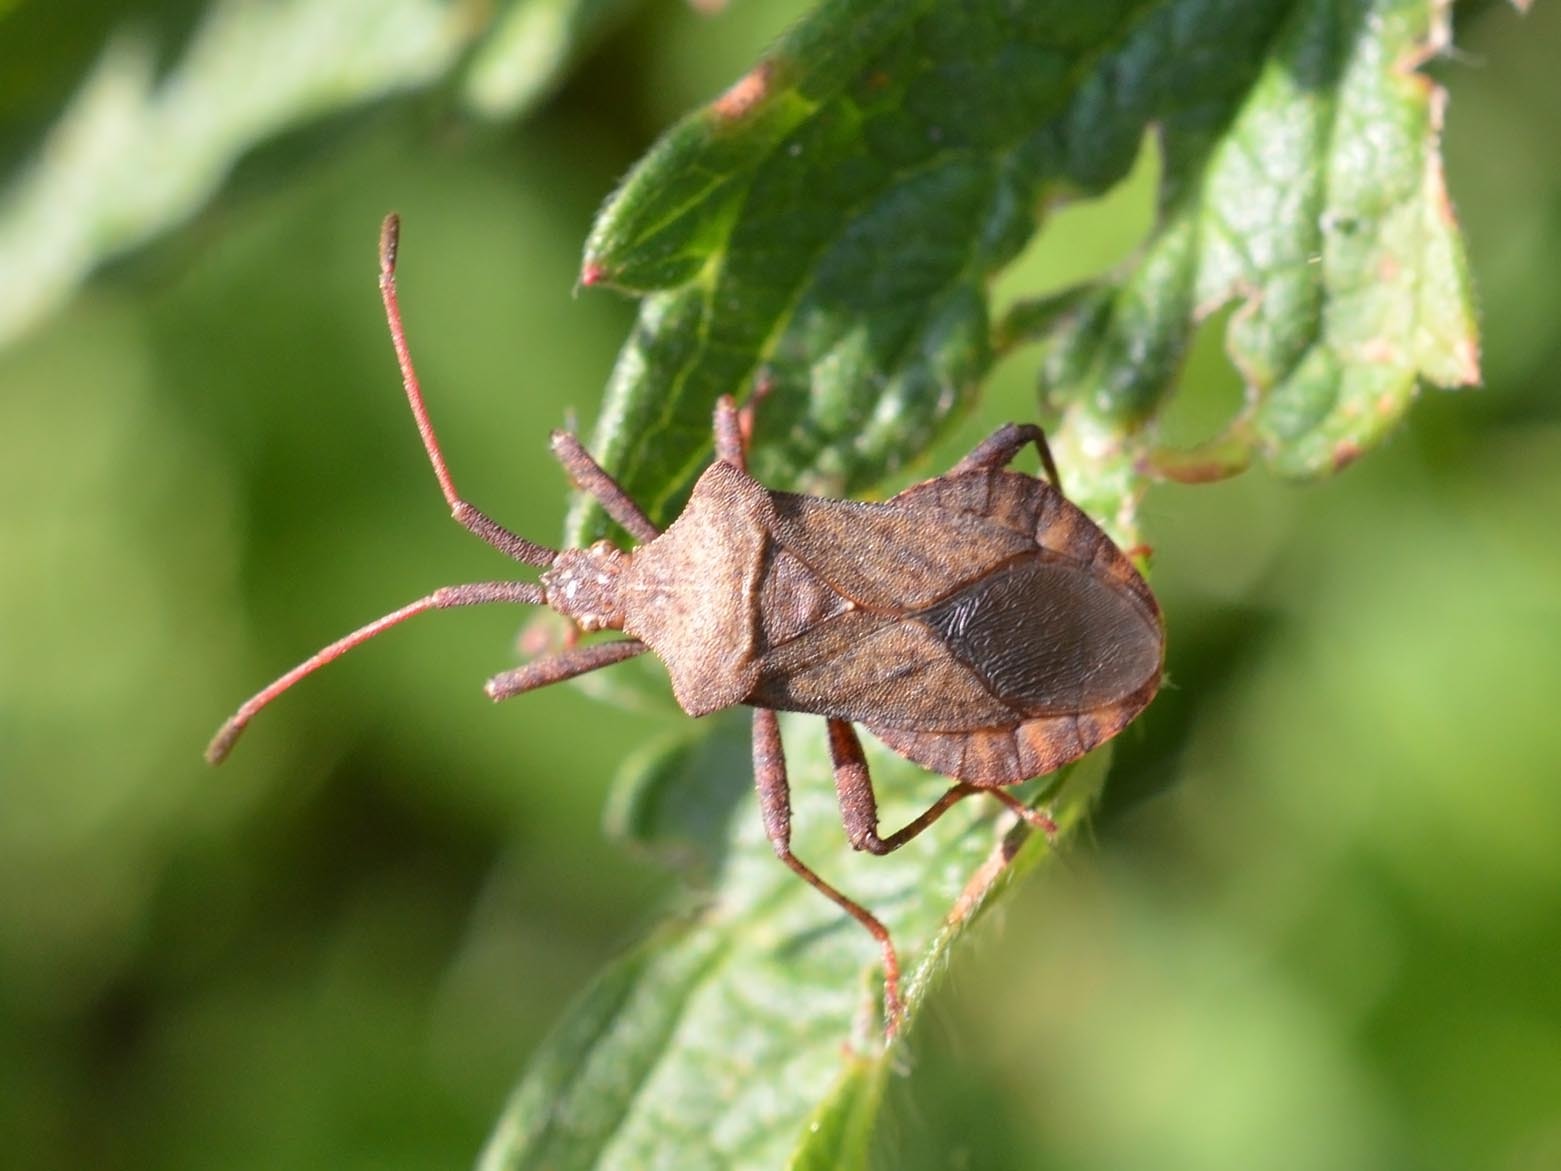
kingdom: Animalia
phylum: Arthropoda
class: Insecta
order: Hemiptera
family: Coreidae
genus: Coreus
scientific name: Coreus marginatus
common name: Dock bug
